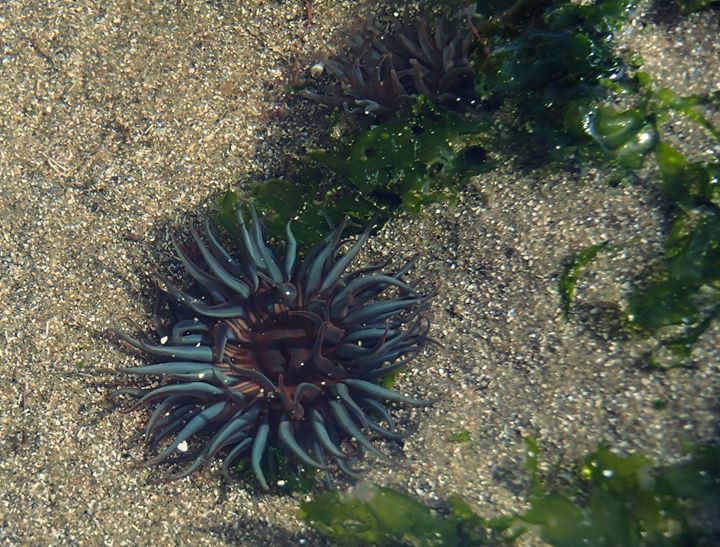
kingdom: Animalia
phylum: Cnidaria
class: Anthozoa
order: Actiniaria
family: Actiniidae
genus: Bunodosoma
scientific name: Bunodosoma cangicum
